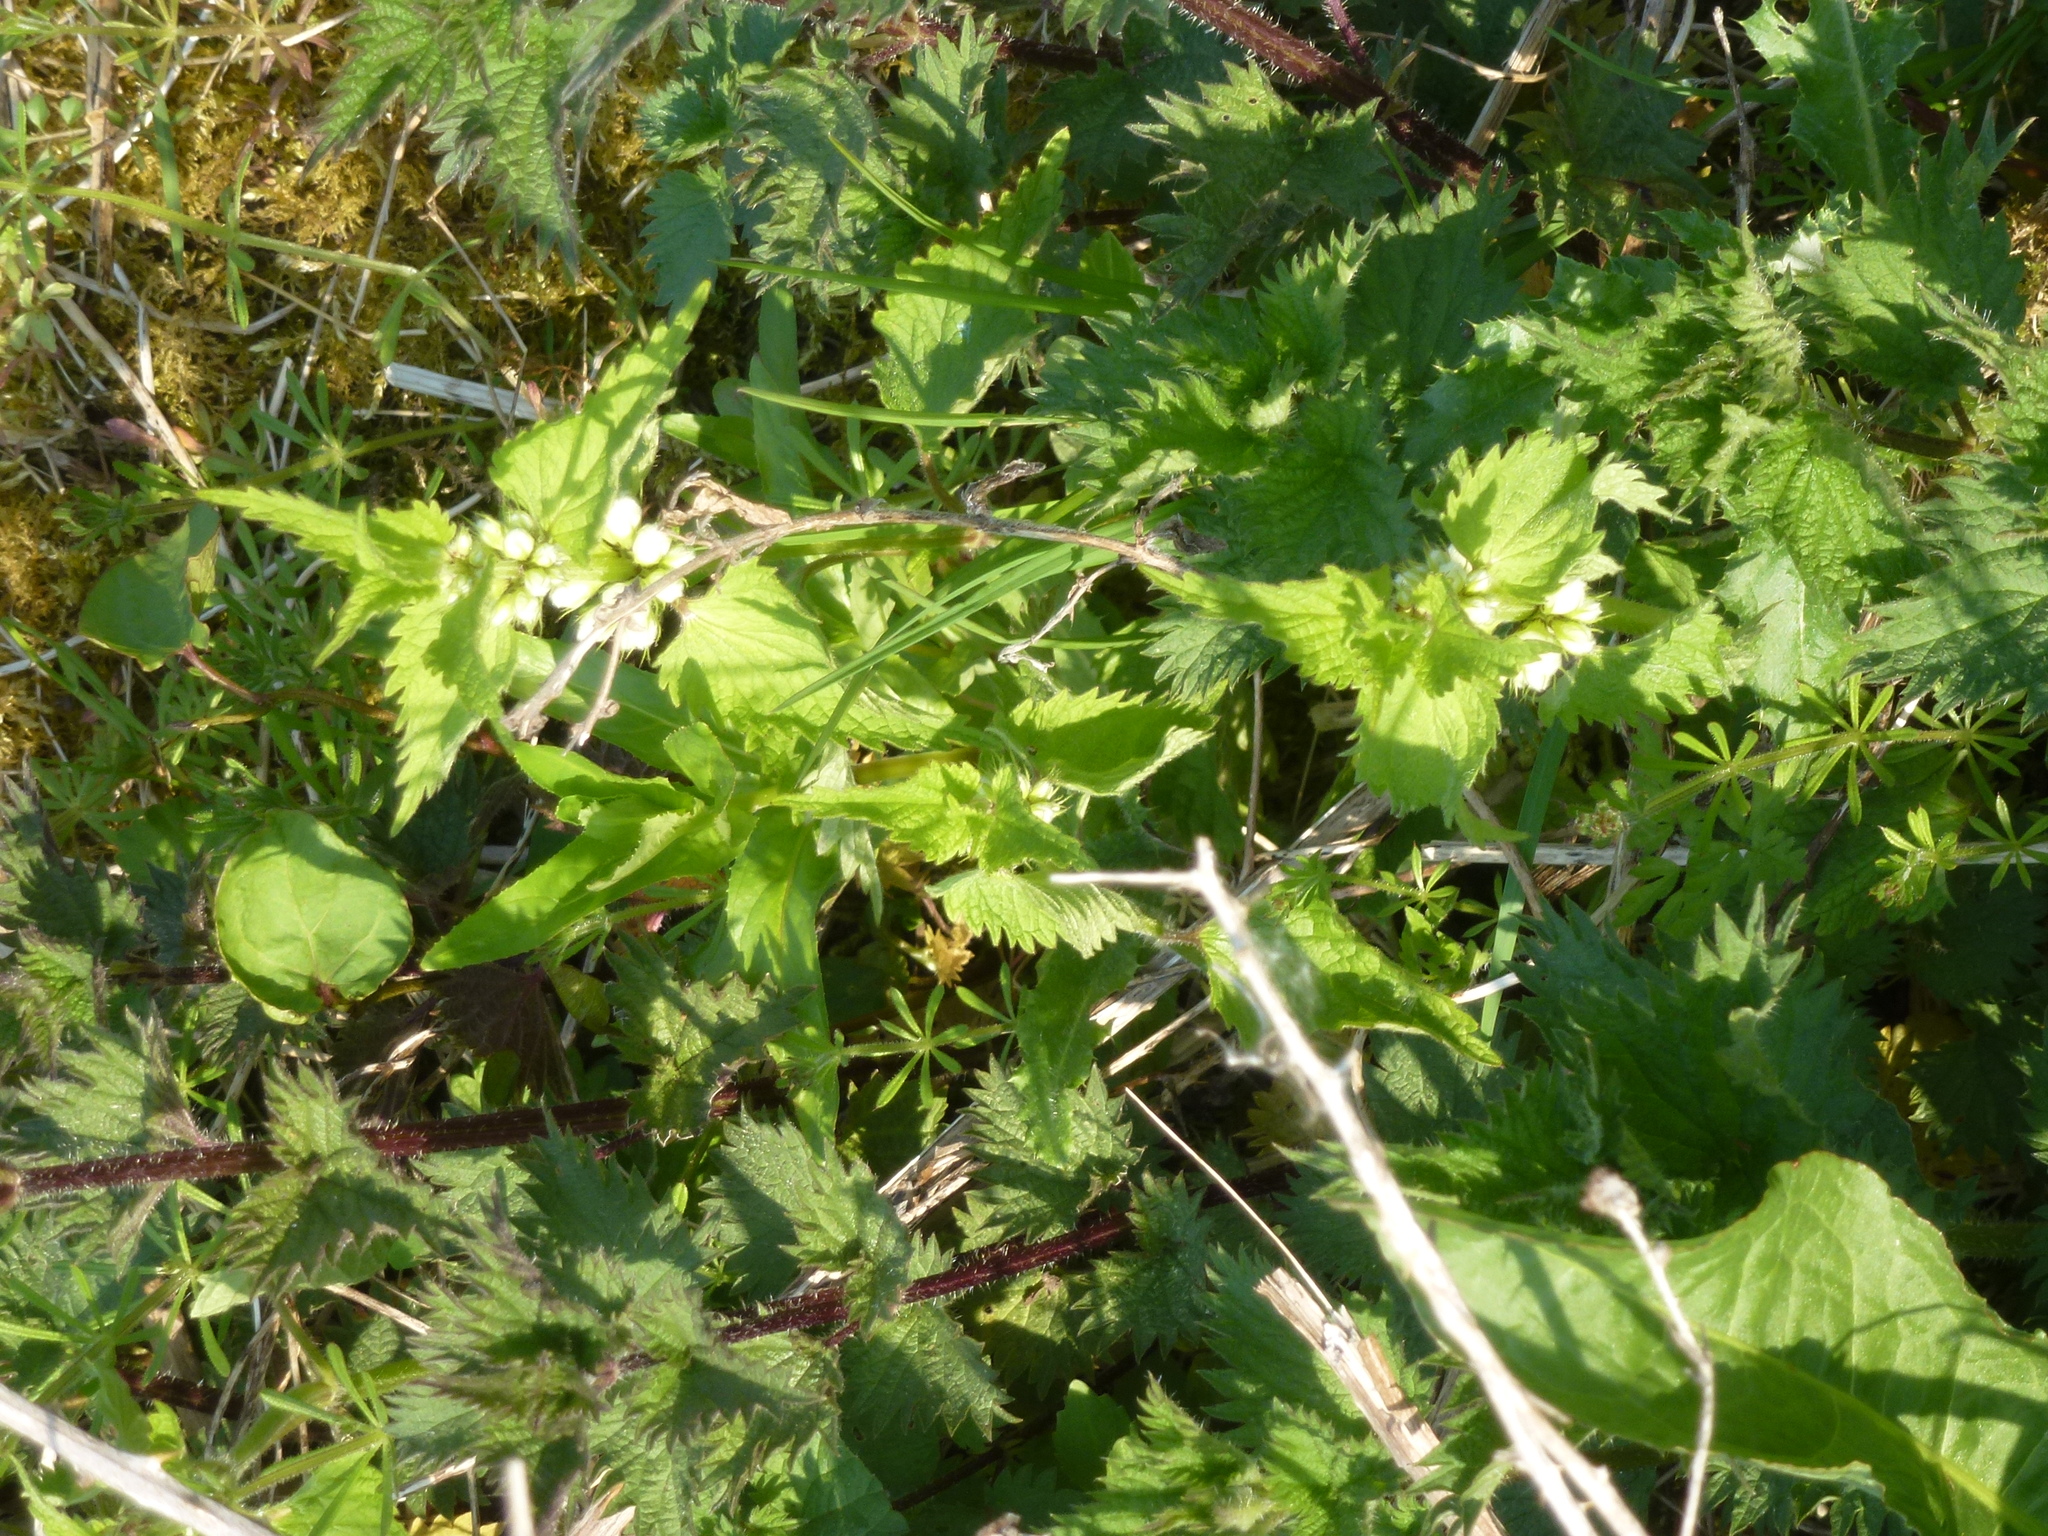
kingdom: Plantae
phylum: Tracheophyta
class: Magnoliopsida
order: Lamiales
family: Lamiaceae
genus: Lamium
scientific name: Lamium album
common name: White dead-nettle
